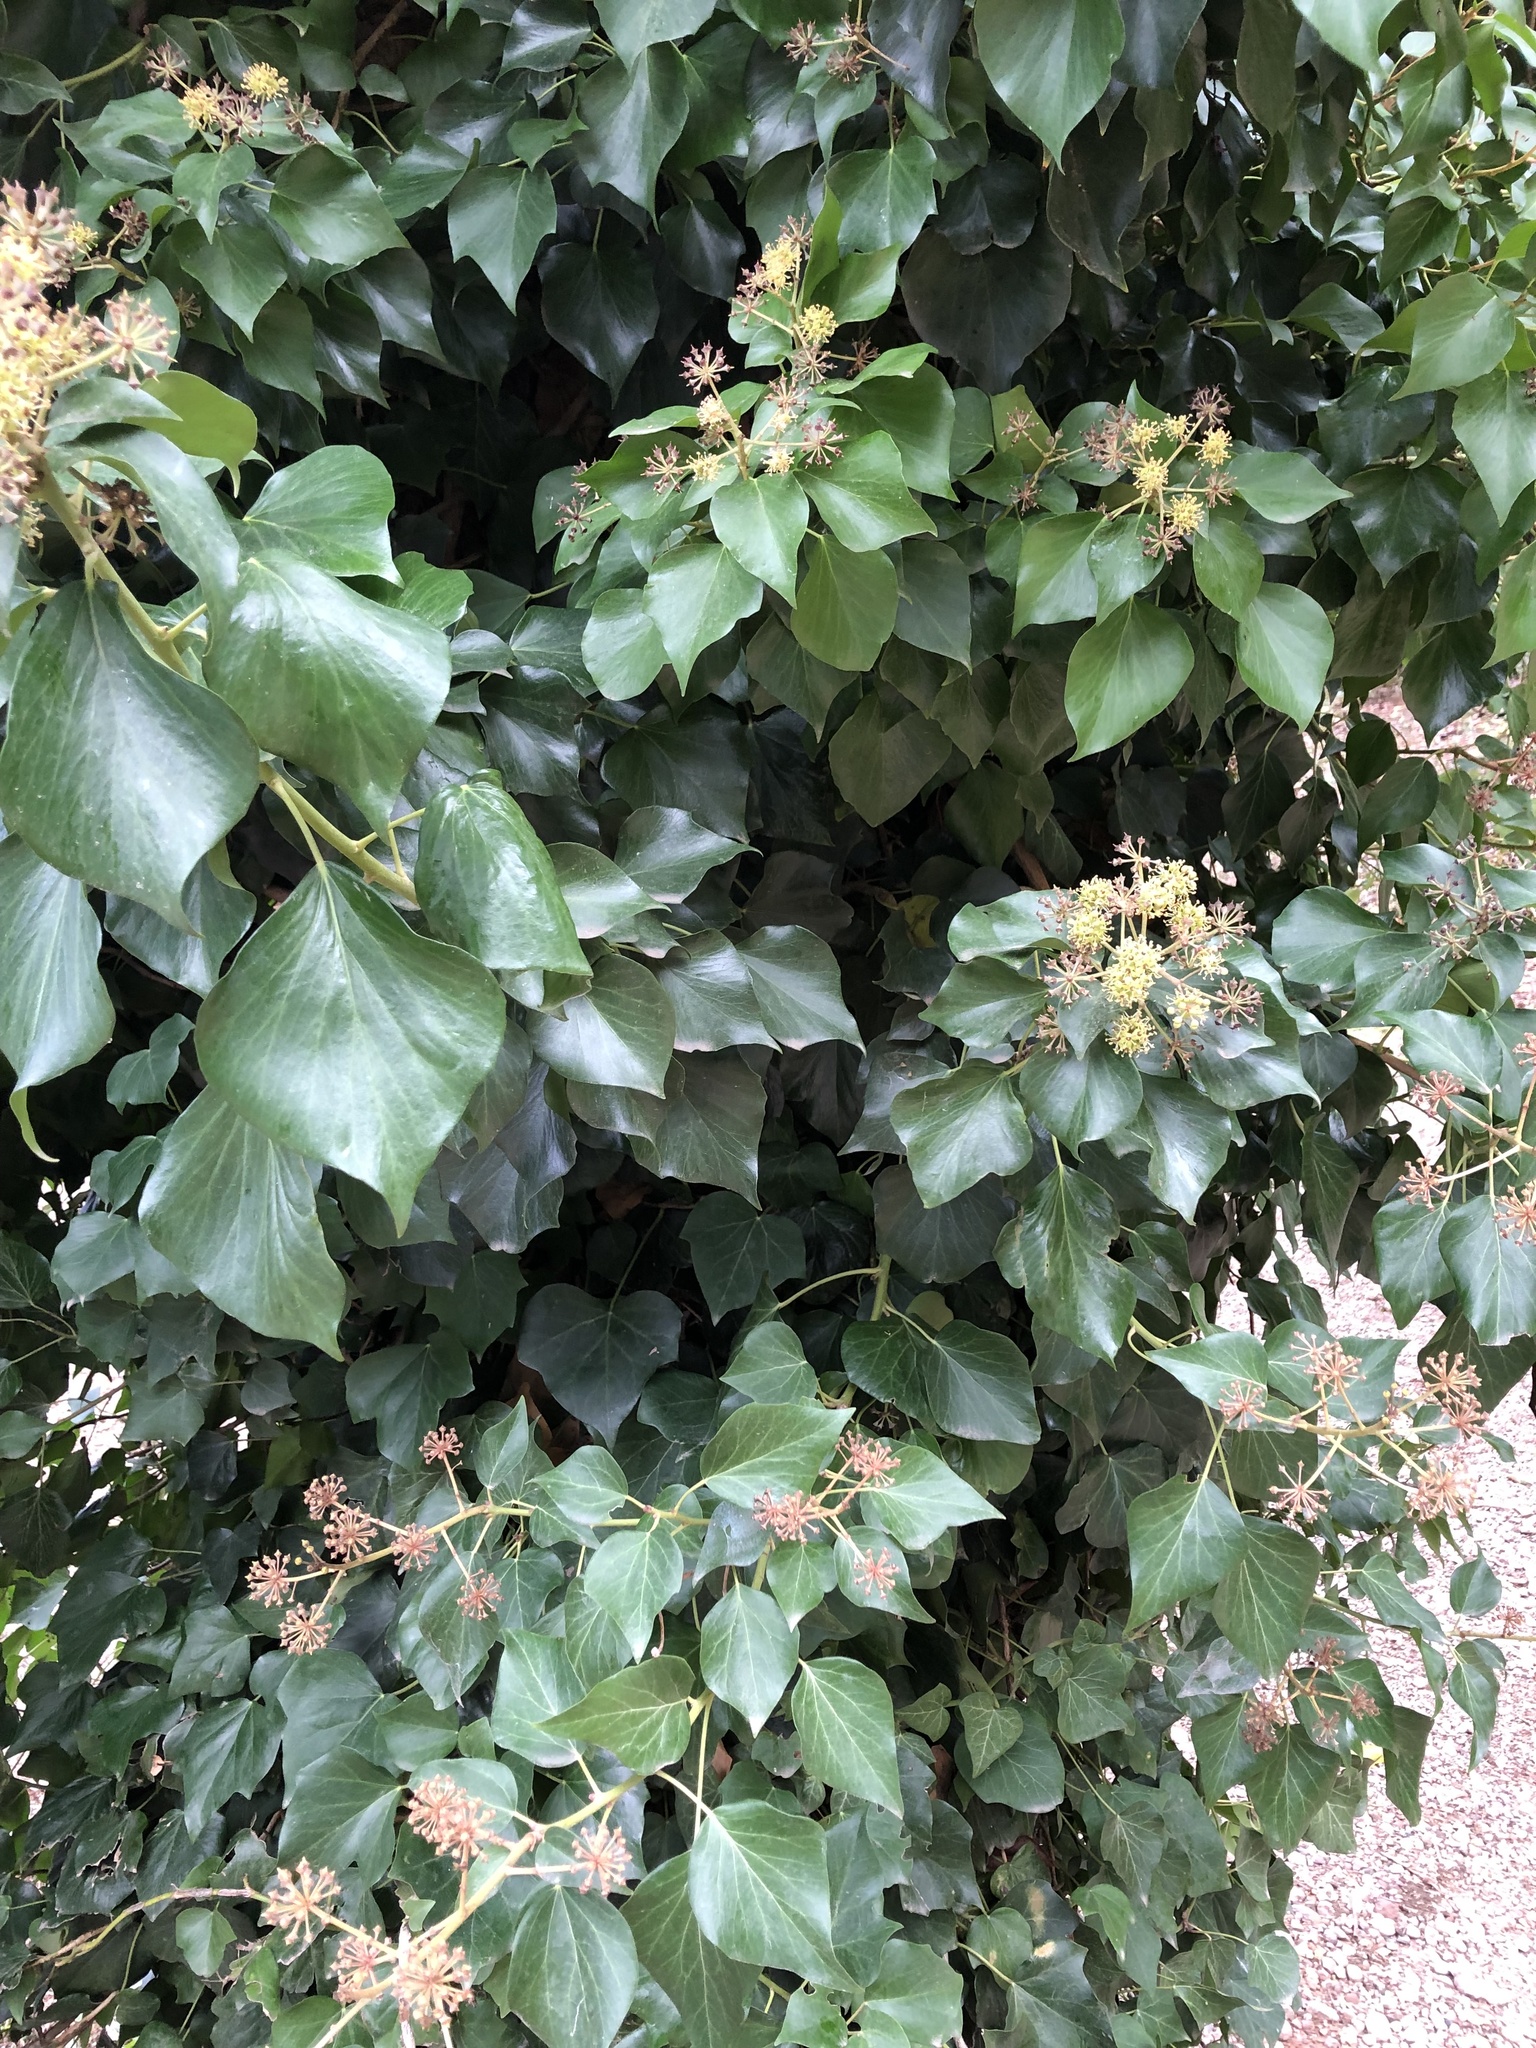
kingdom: Plantae
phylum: Tracheophyta
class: Magnoliopsida
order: Apiales
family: Araliaceae
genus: Hedera
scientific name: Hedera helix
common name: Ivy
